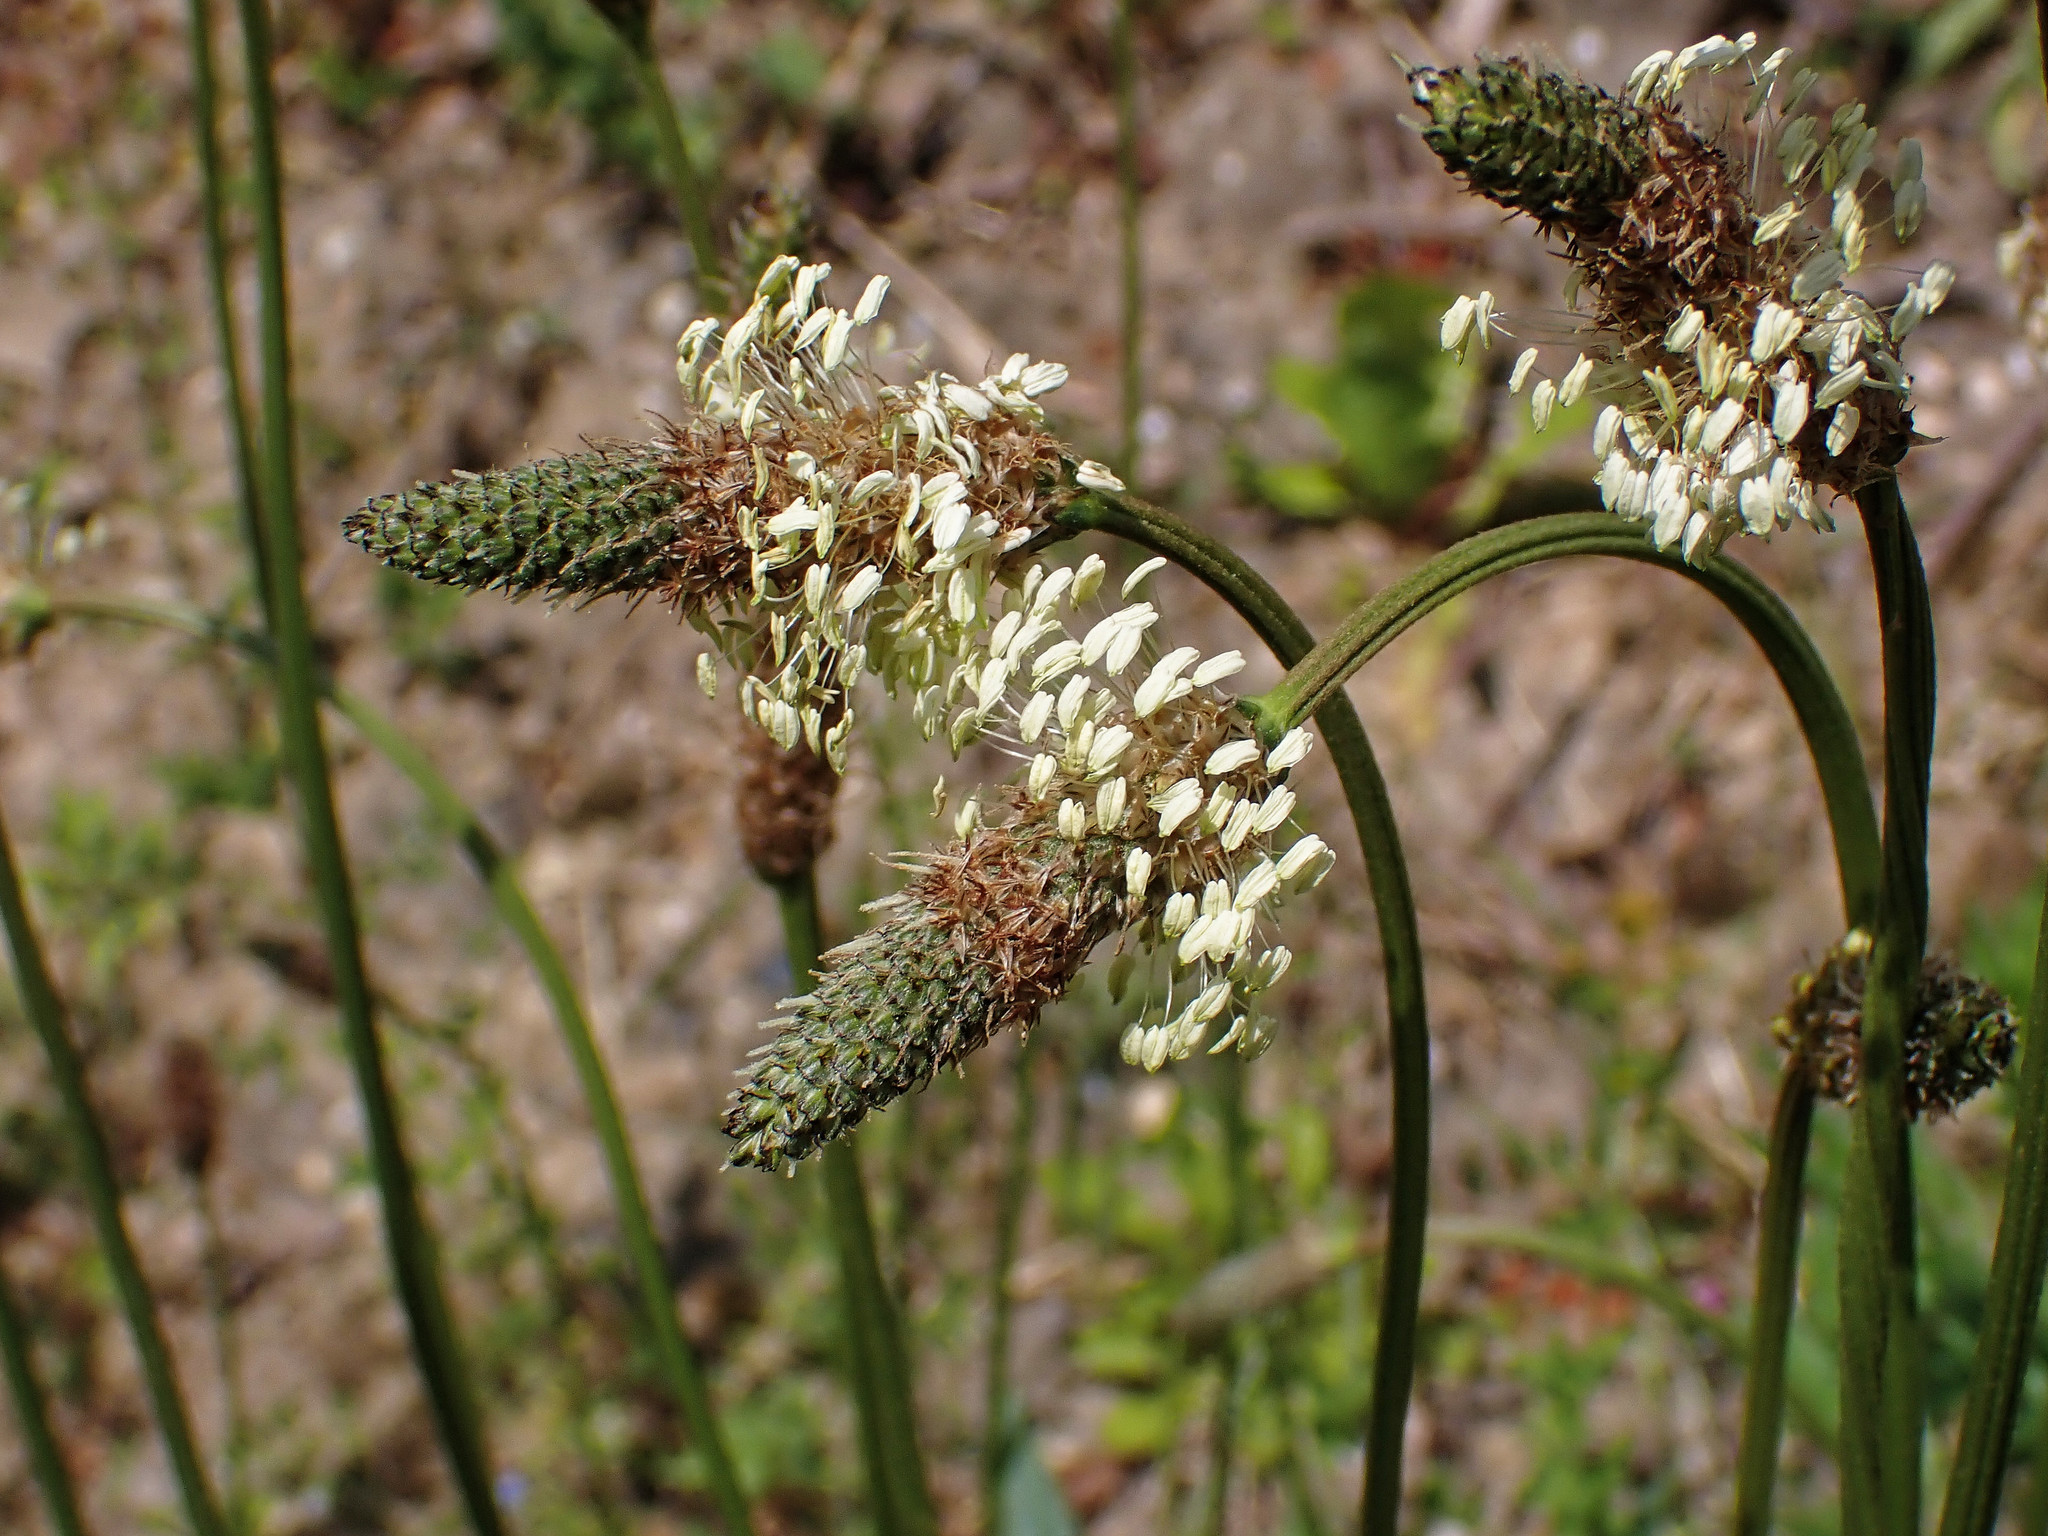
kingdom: Plantae
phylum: Tracheophyta
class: Magnoliopsida
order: Lamiales
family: Plantaginaceae
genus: Plantago
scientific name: Plantago lanceolata
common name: Ribwort plantain
